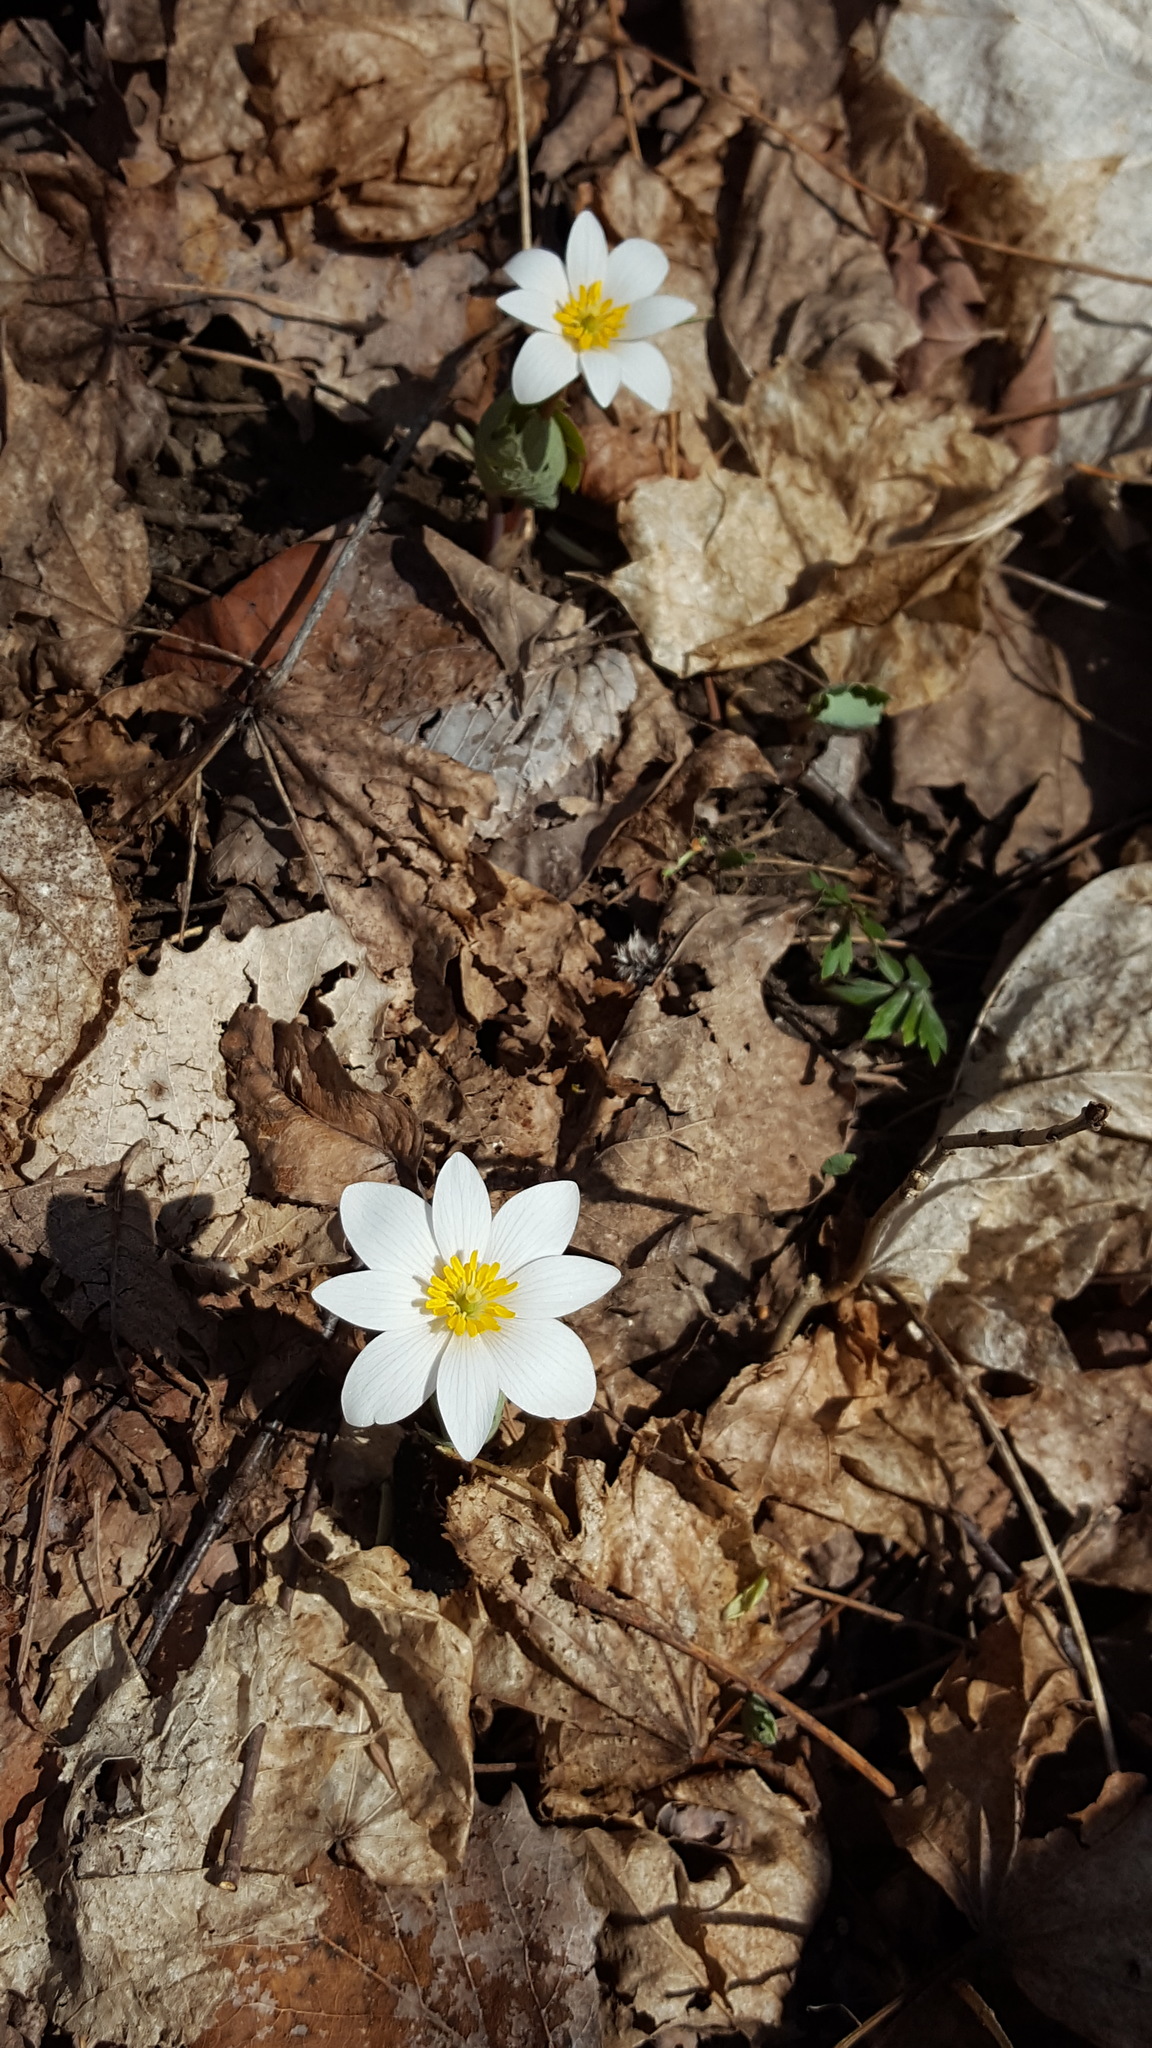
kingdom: Plantae
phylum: Tracheophyta
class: Magnoliopsida
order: Ranunculales
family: Papaveraceae
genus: Sanguinaria
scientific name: Sanguinaria canadensis
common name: Bloodroot
